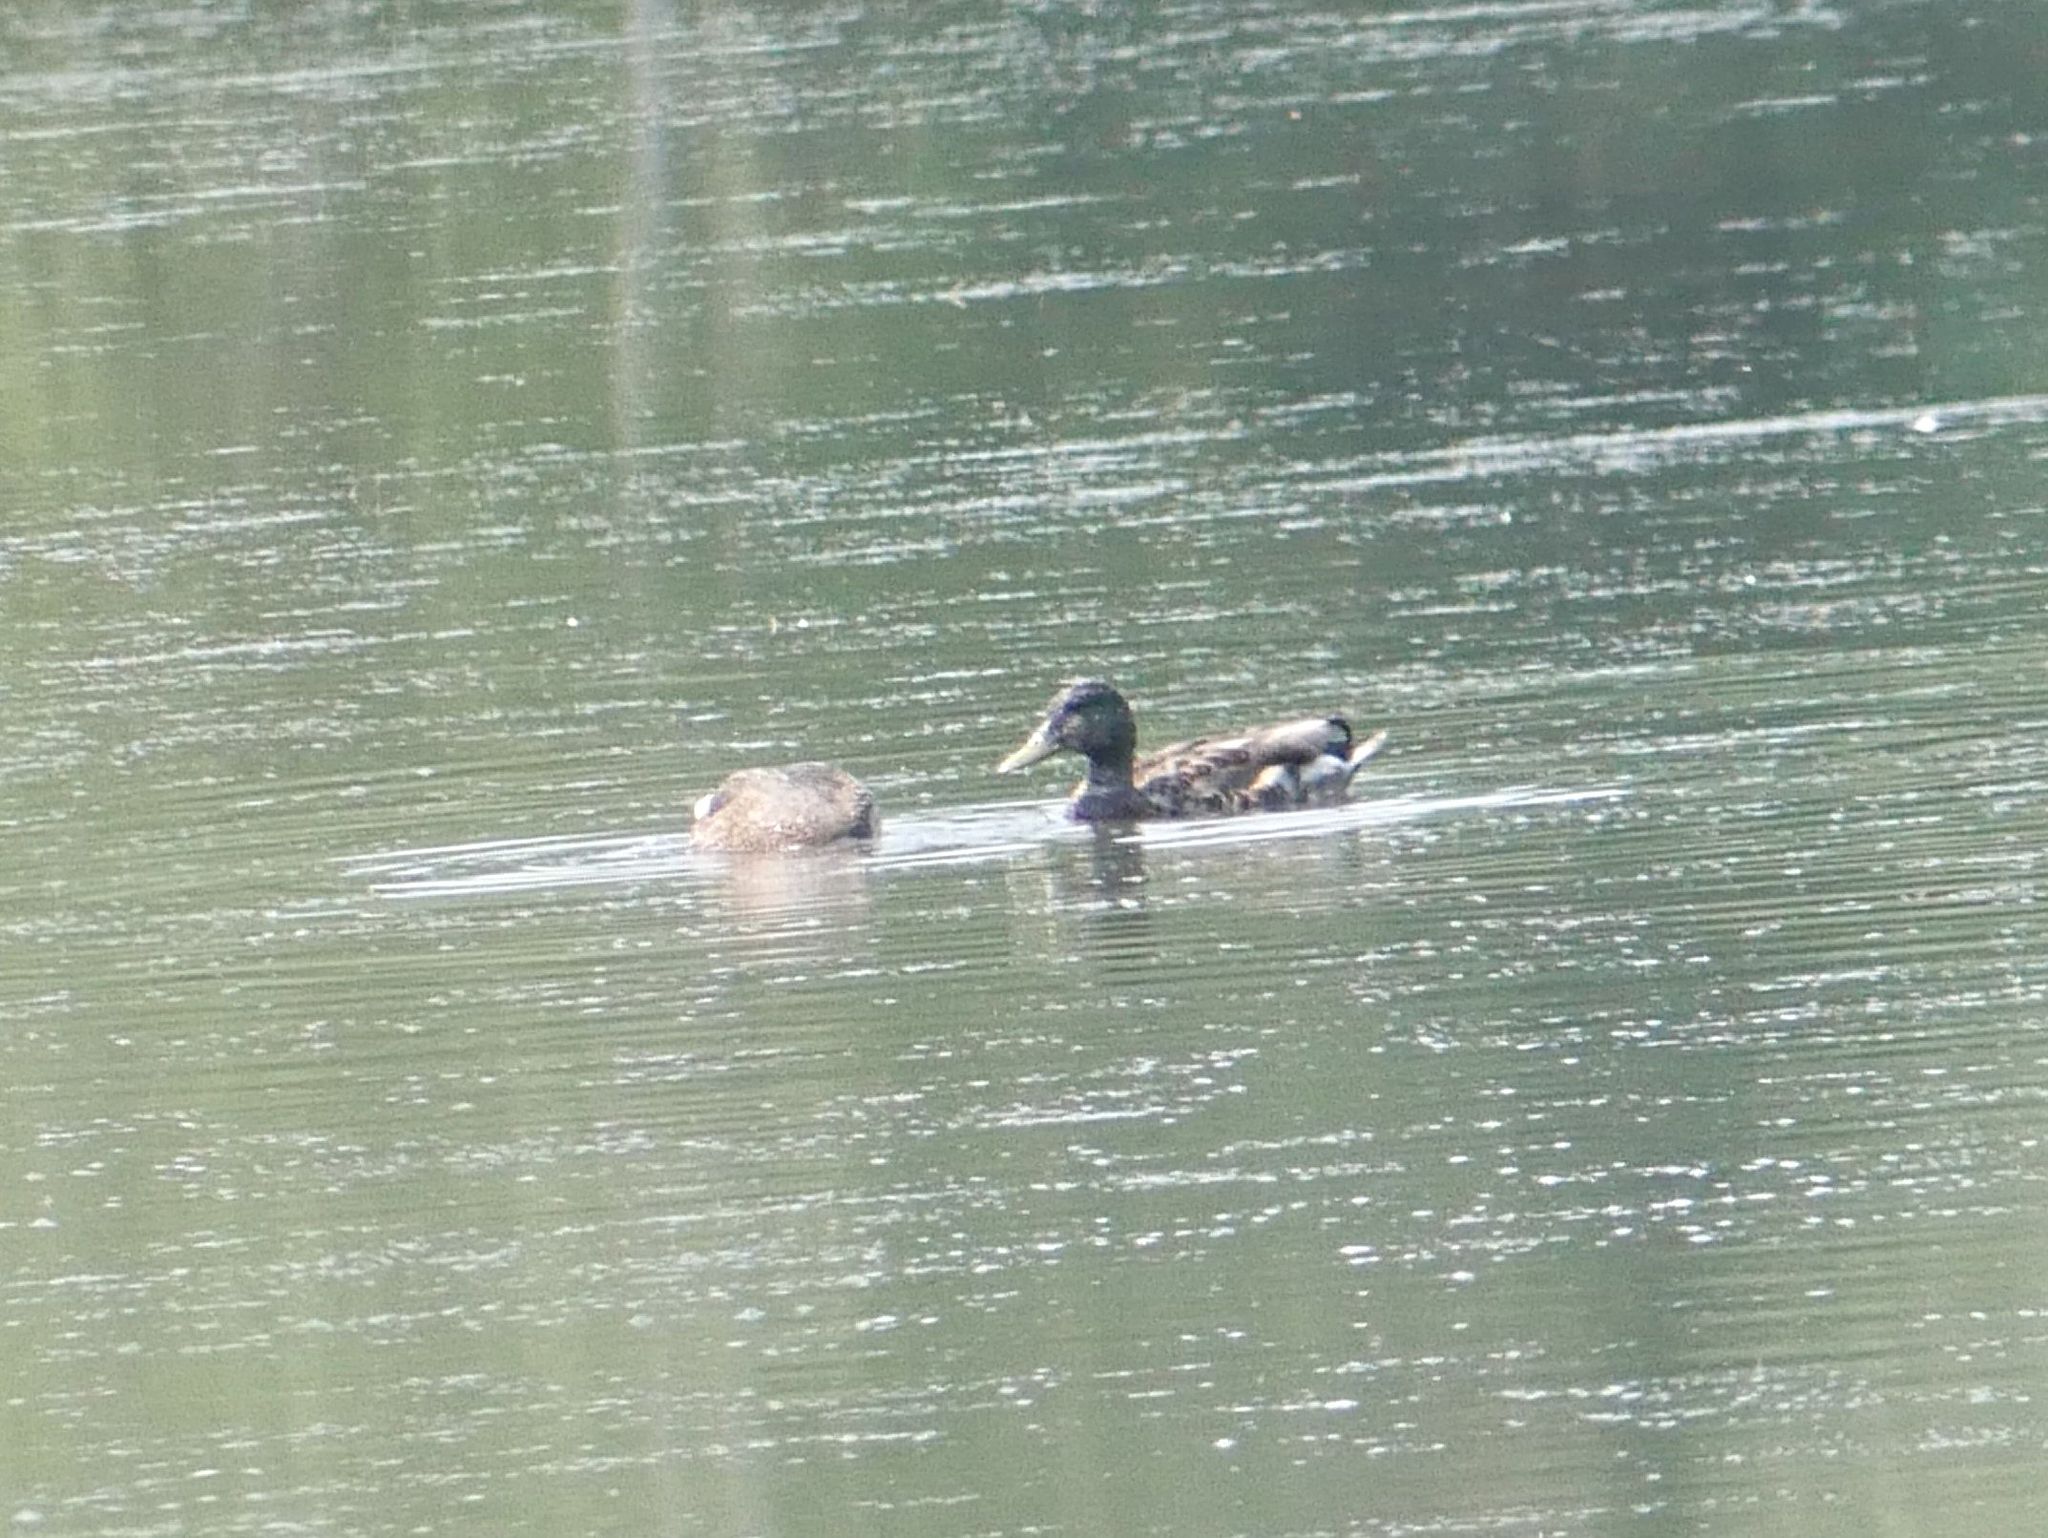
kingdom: Animalia
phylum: Chordata
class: Aves
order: Anseriformes
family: Anatidae
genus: Anas
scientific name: Anas platyrhynchos
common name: Mallard
